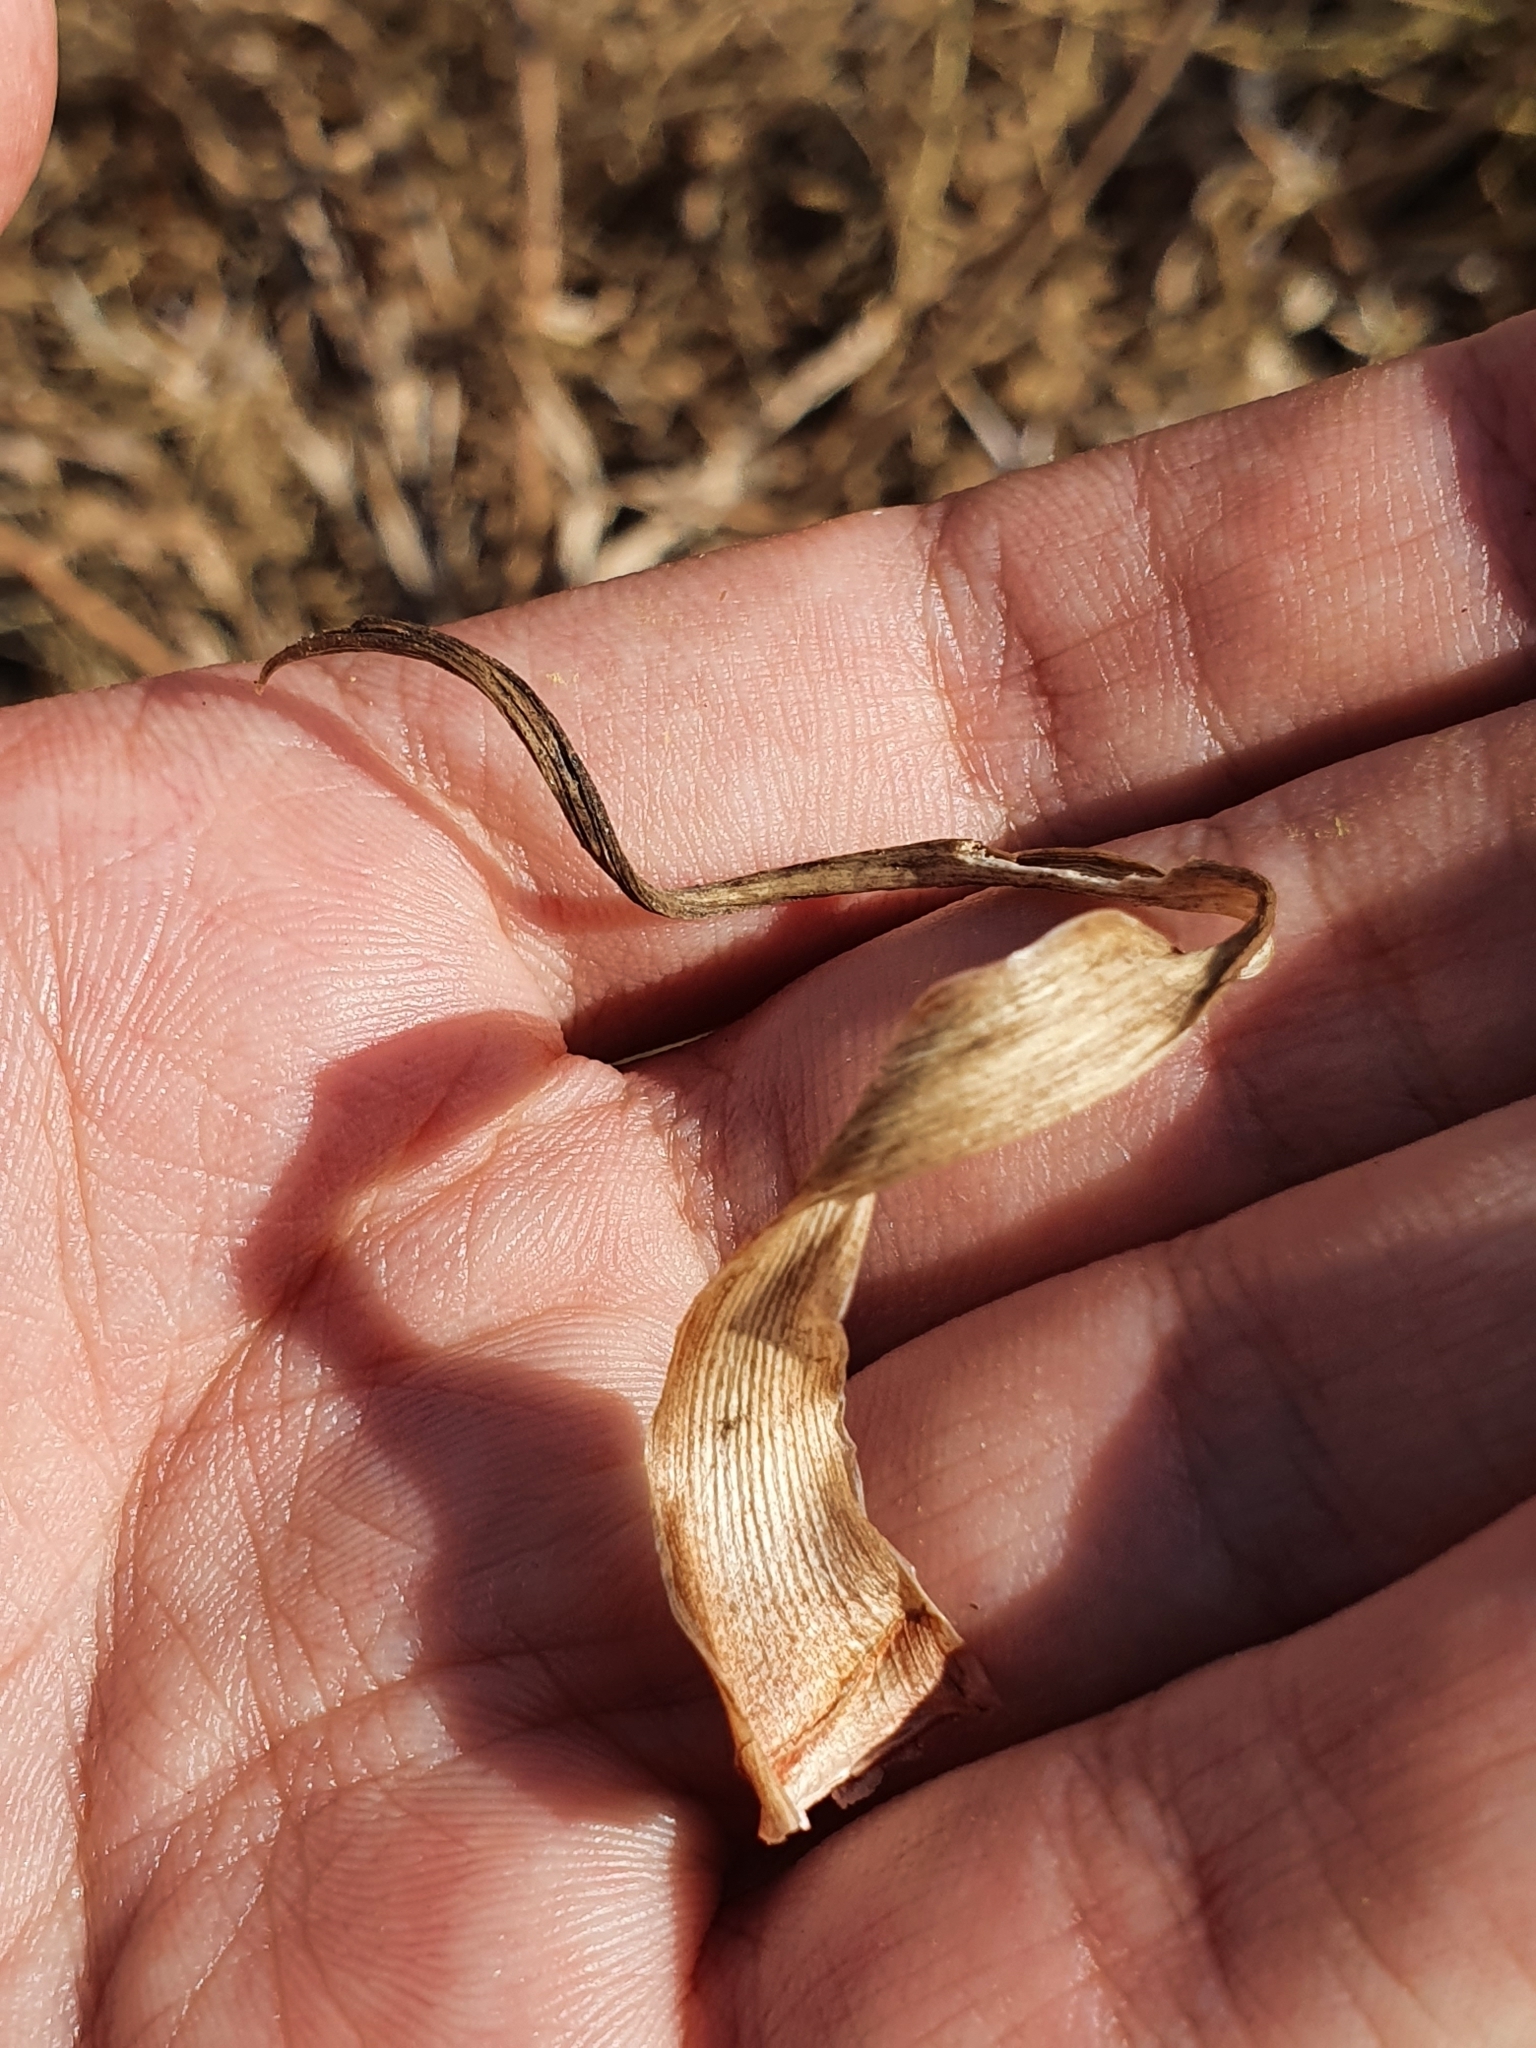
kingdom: Plantae
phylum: Tracheophyta
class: Liliopsida
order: Asparagales
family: Asparagaceae
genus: Drimia
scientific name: Drimia anthericoides
